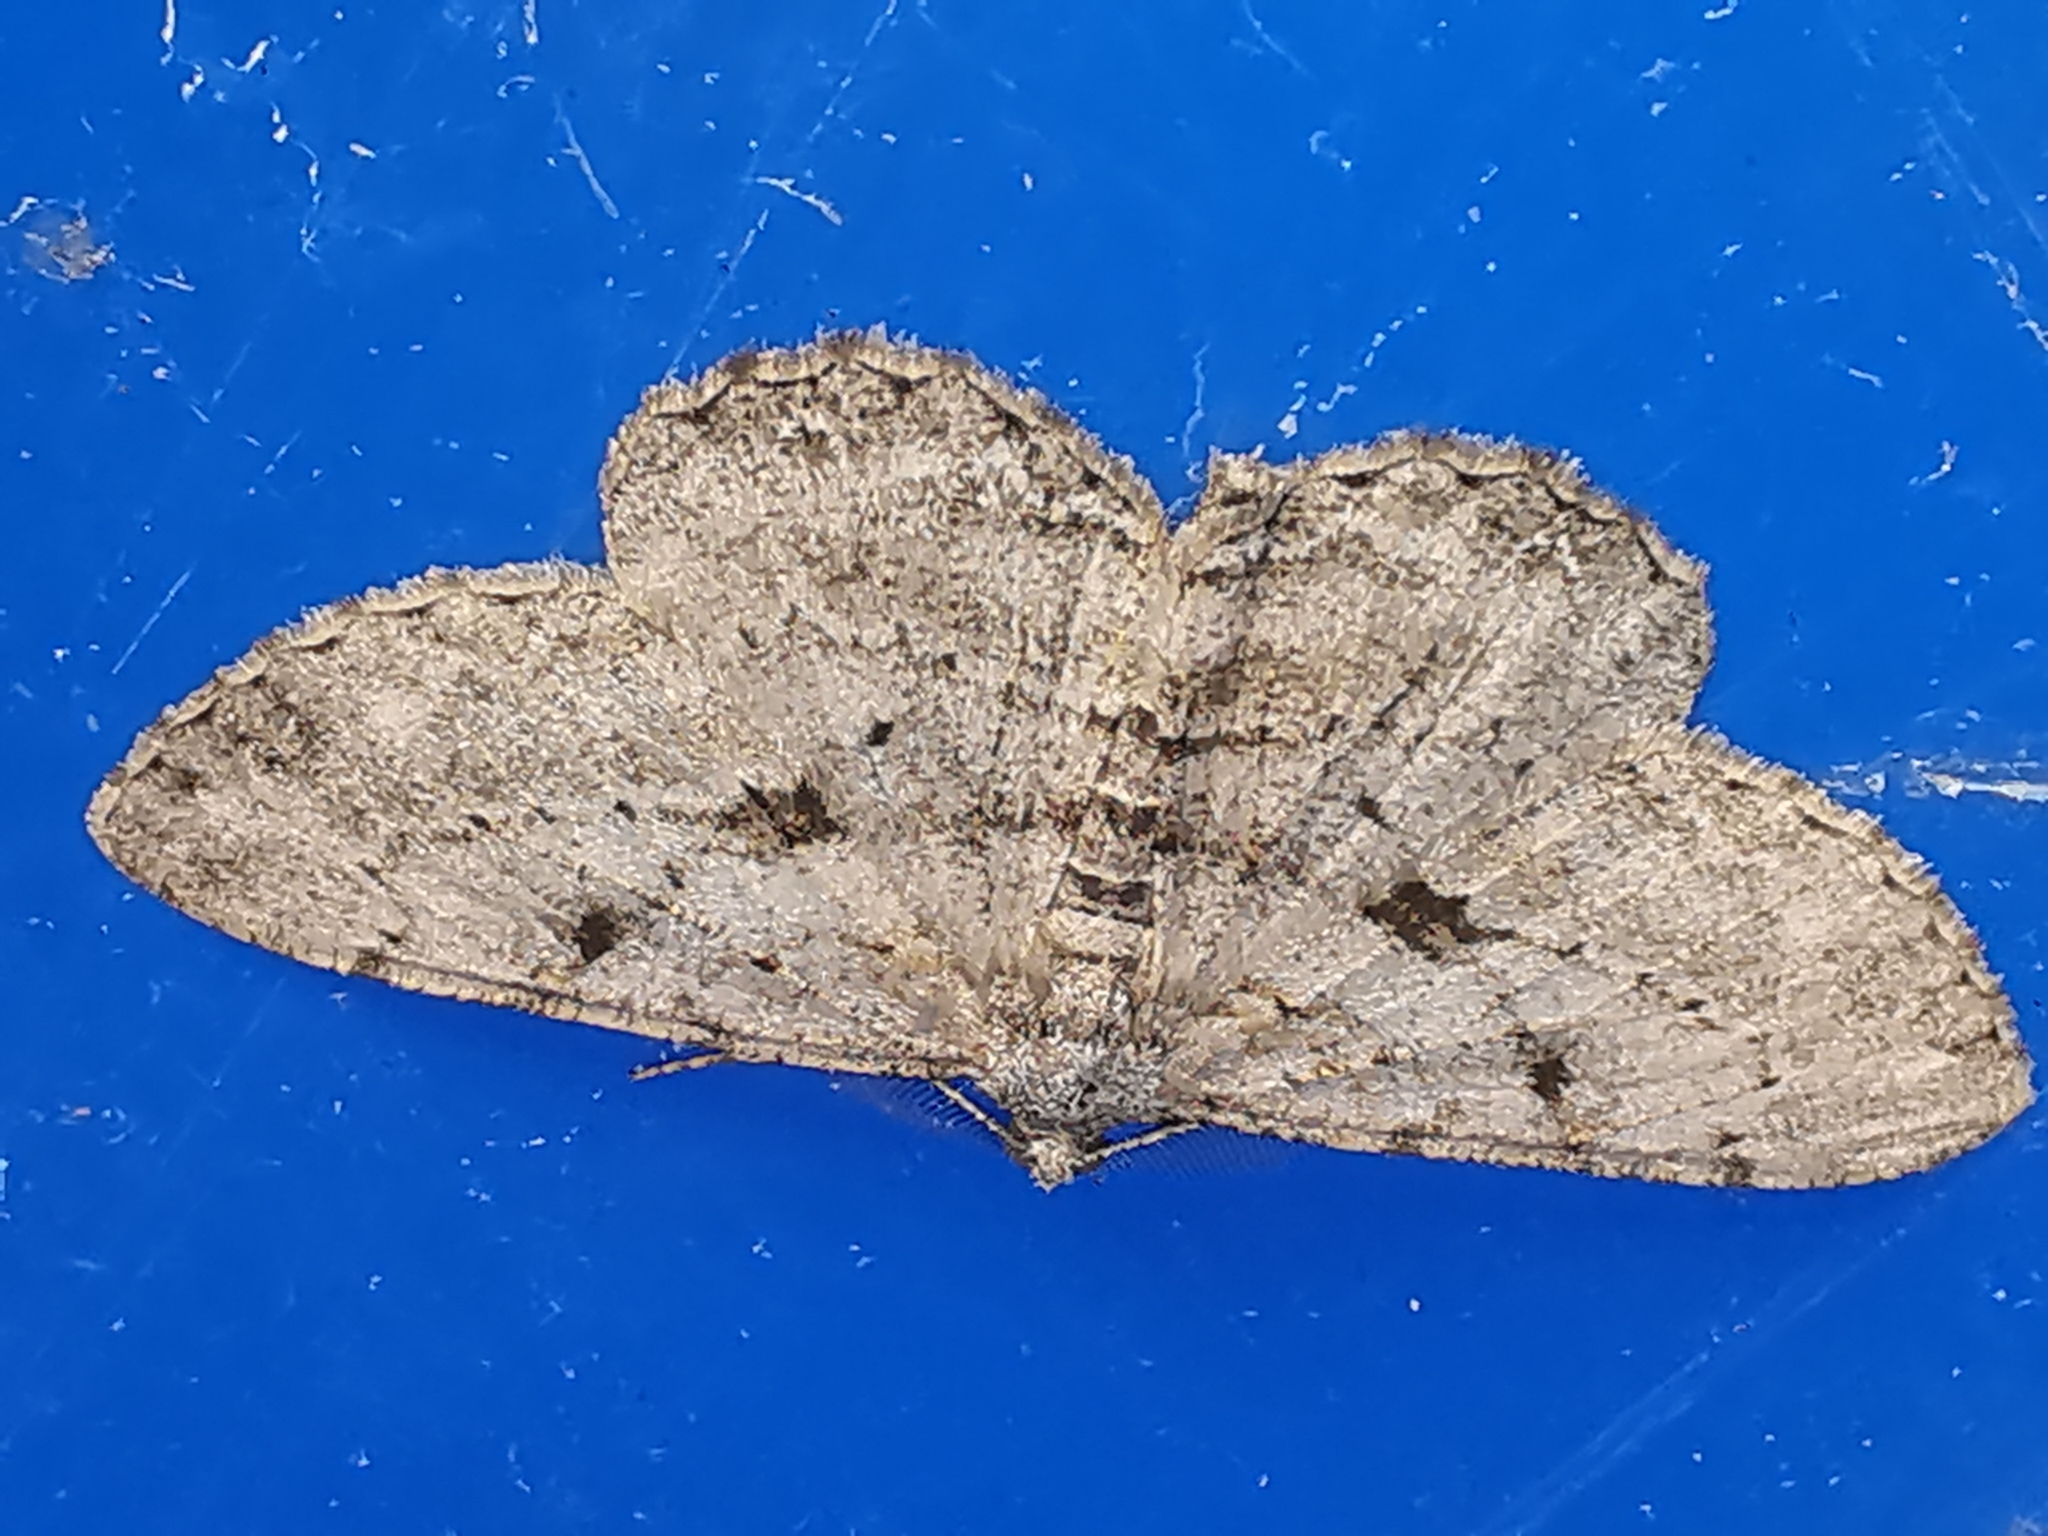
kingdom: Animalia
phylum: Arthropoda
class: Insecta
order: Lepidoptera
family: Geometridae
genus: Peribatodes
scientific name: Peribatodes rhomboidaria
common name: Willow beauty
